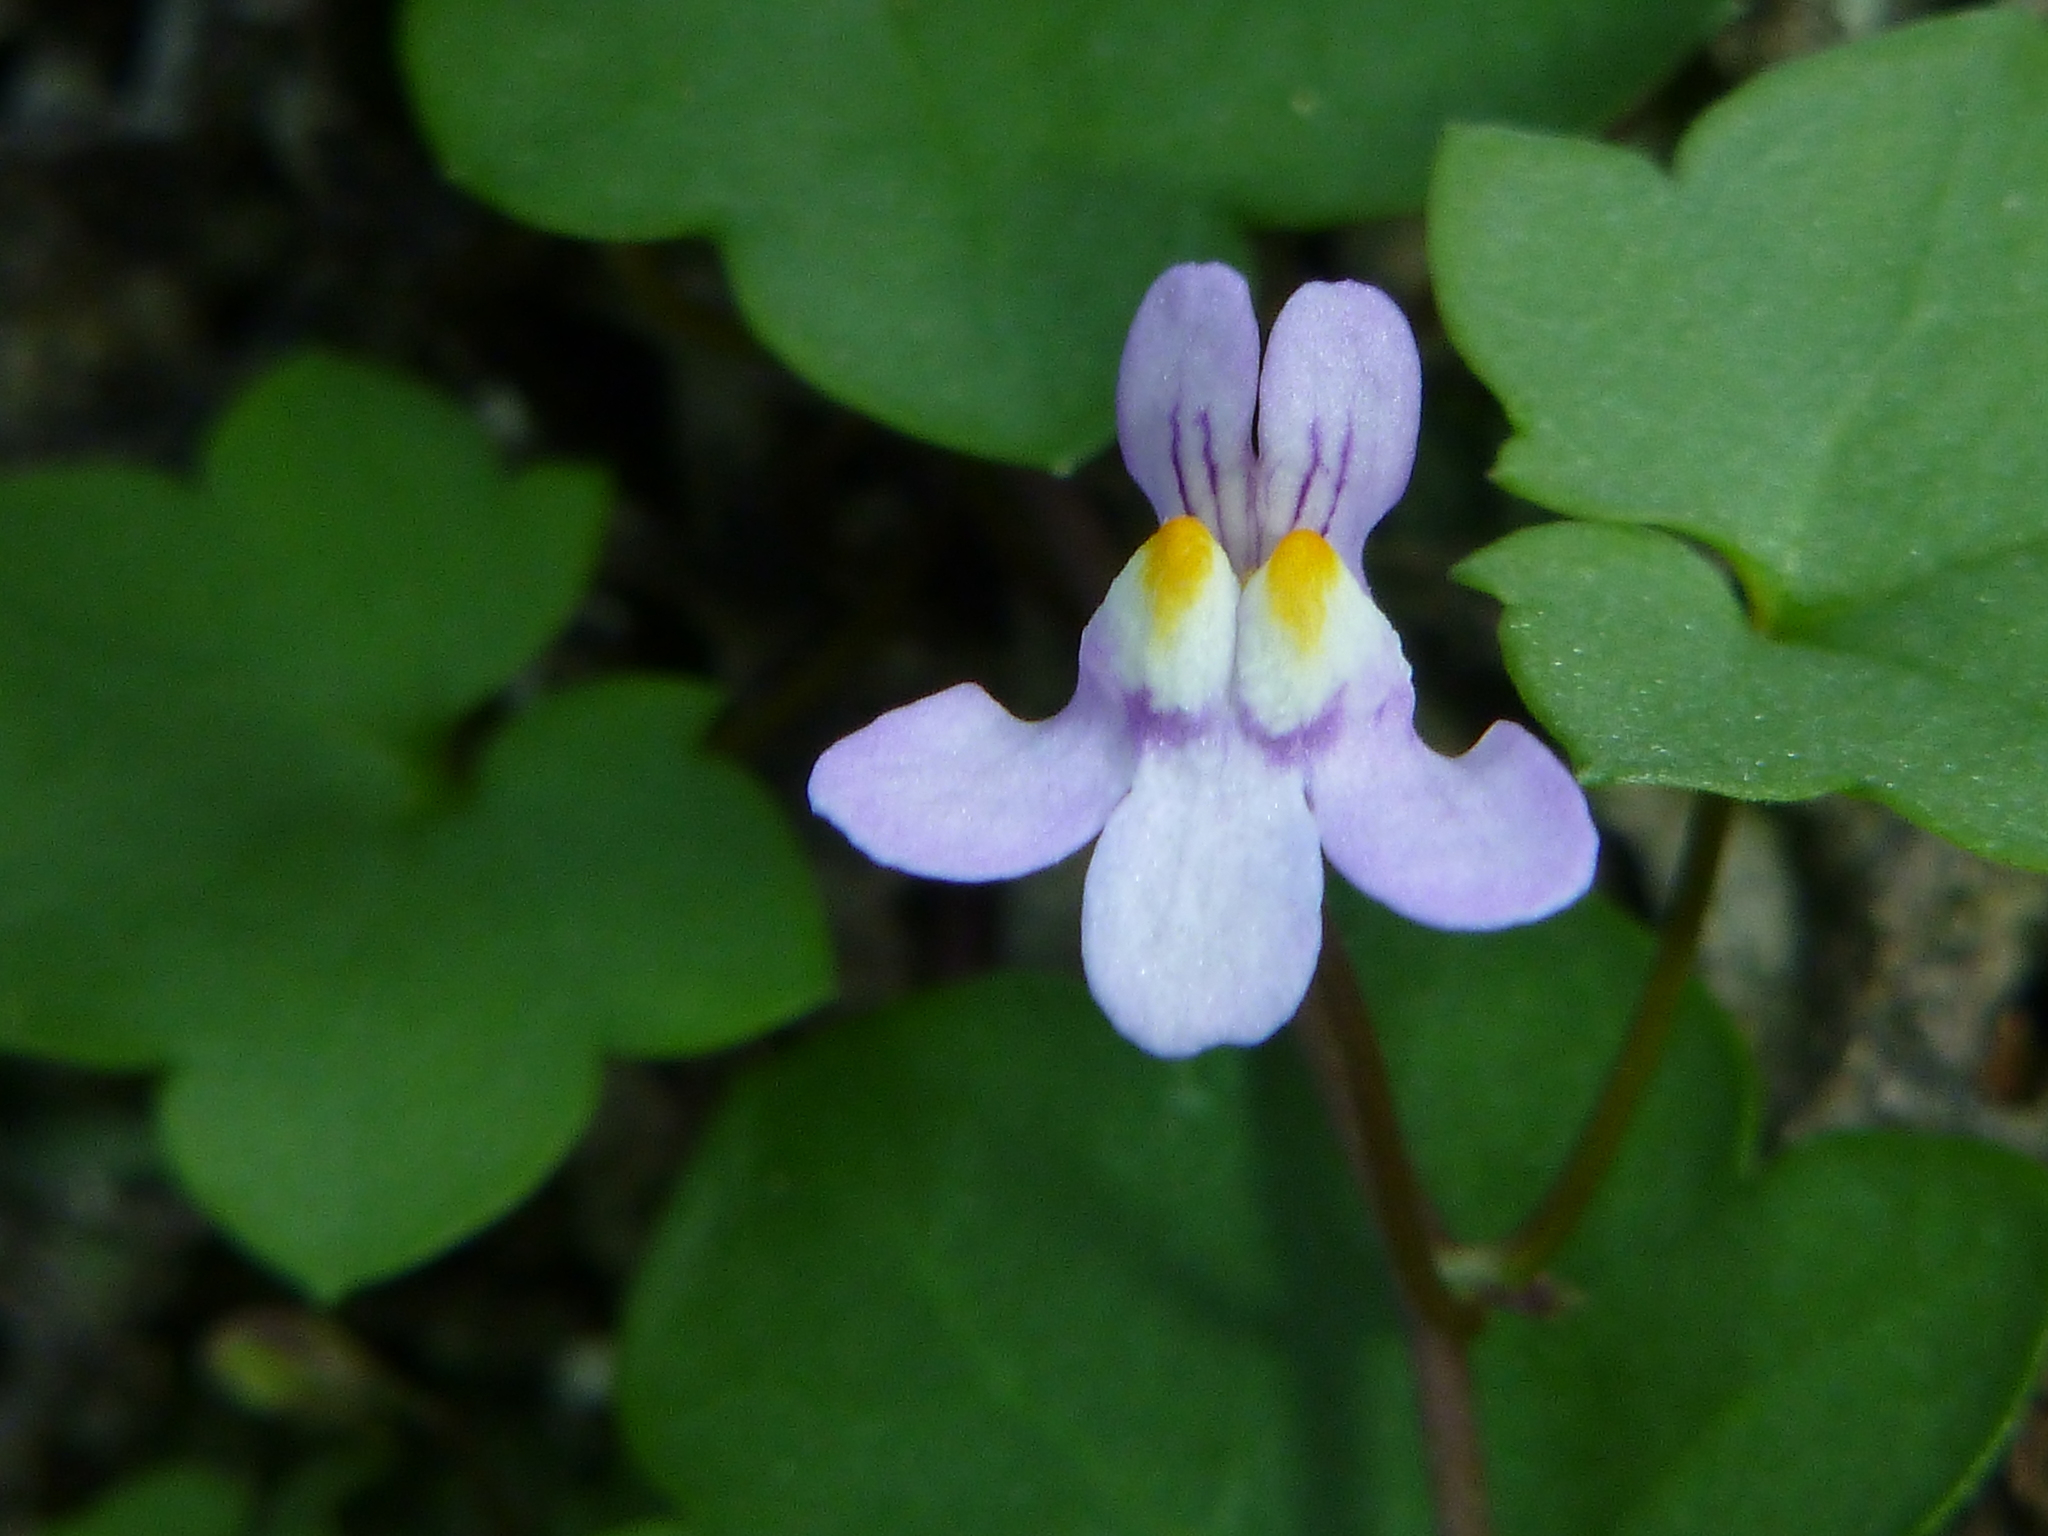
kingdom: Plantae
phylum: Tracheophyta
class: Magnoliopsida
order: Lamiales
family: Plantaginaceae
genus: Cymbalaria
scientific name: Cymbalaria muralis
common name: Ivy-leaved toadflax
